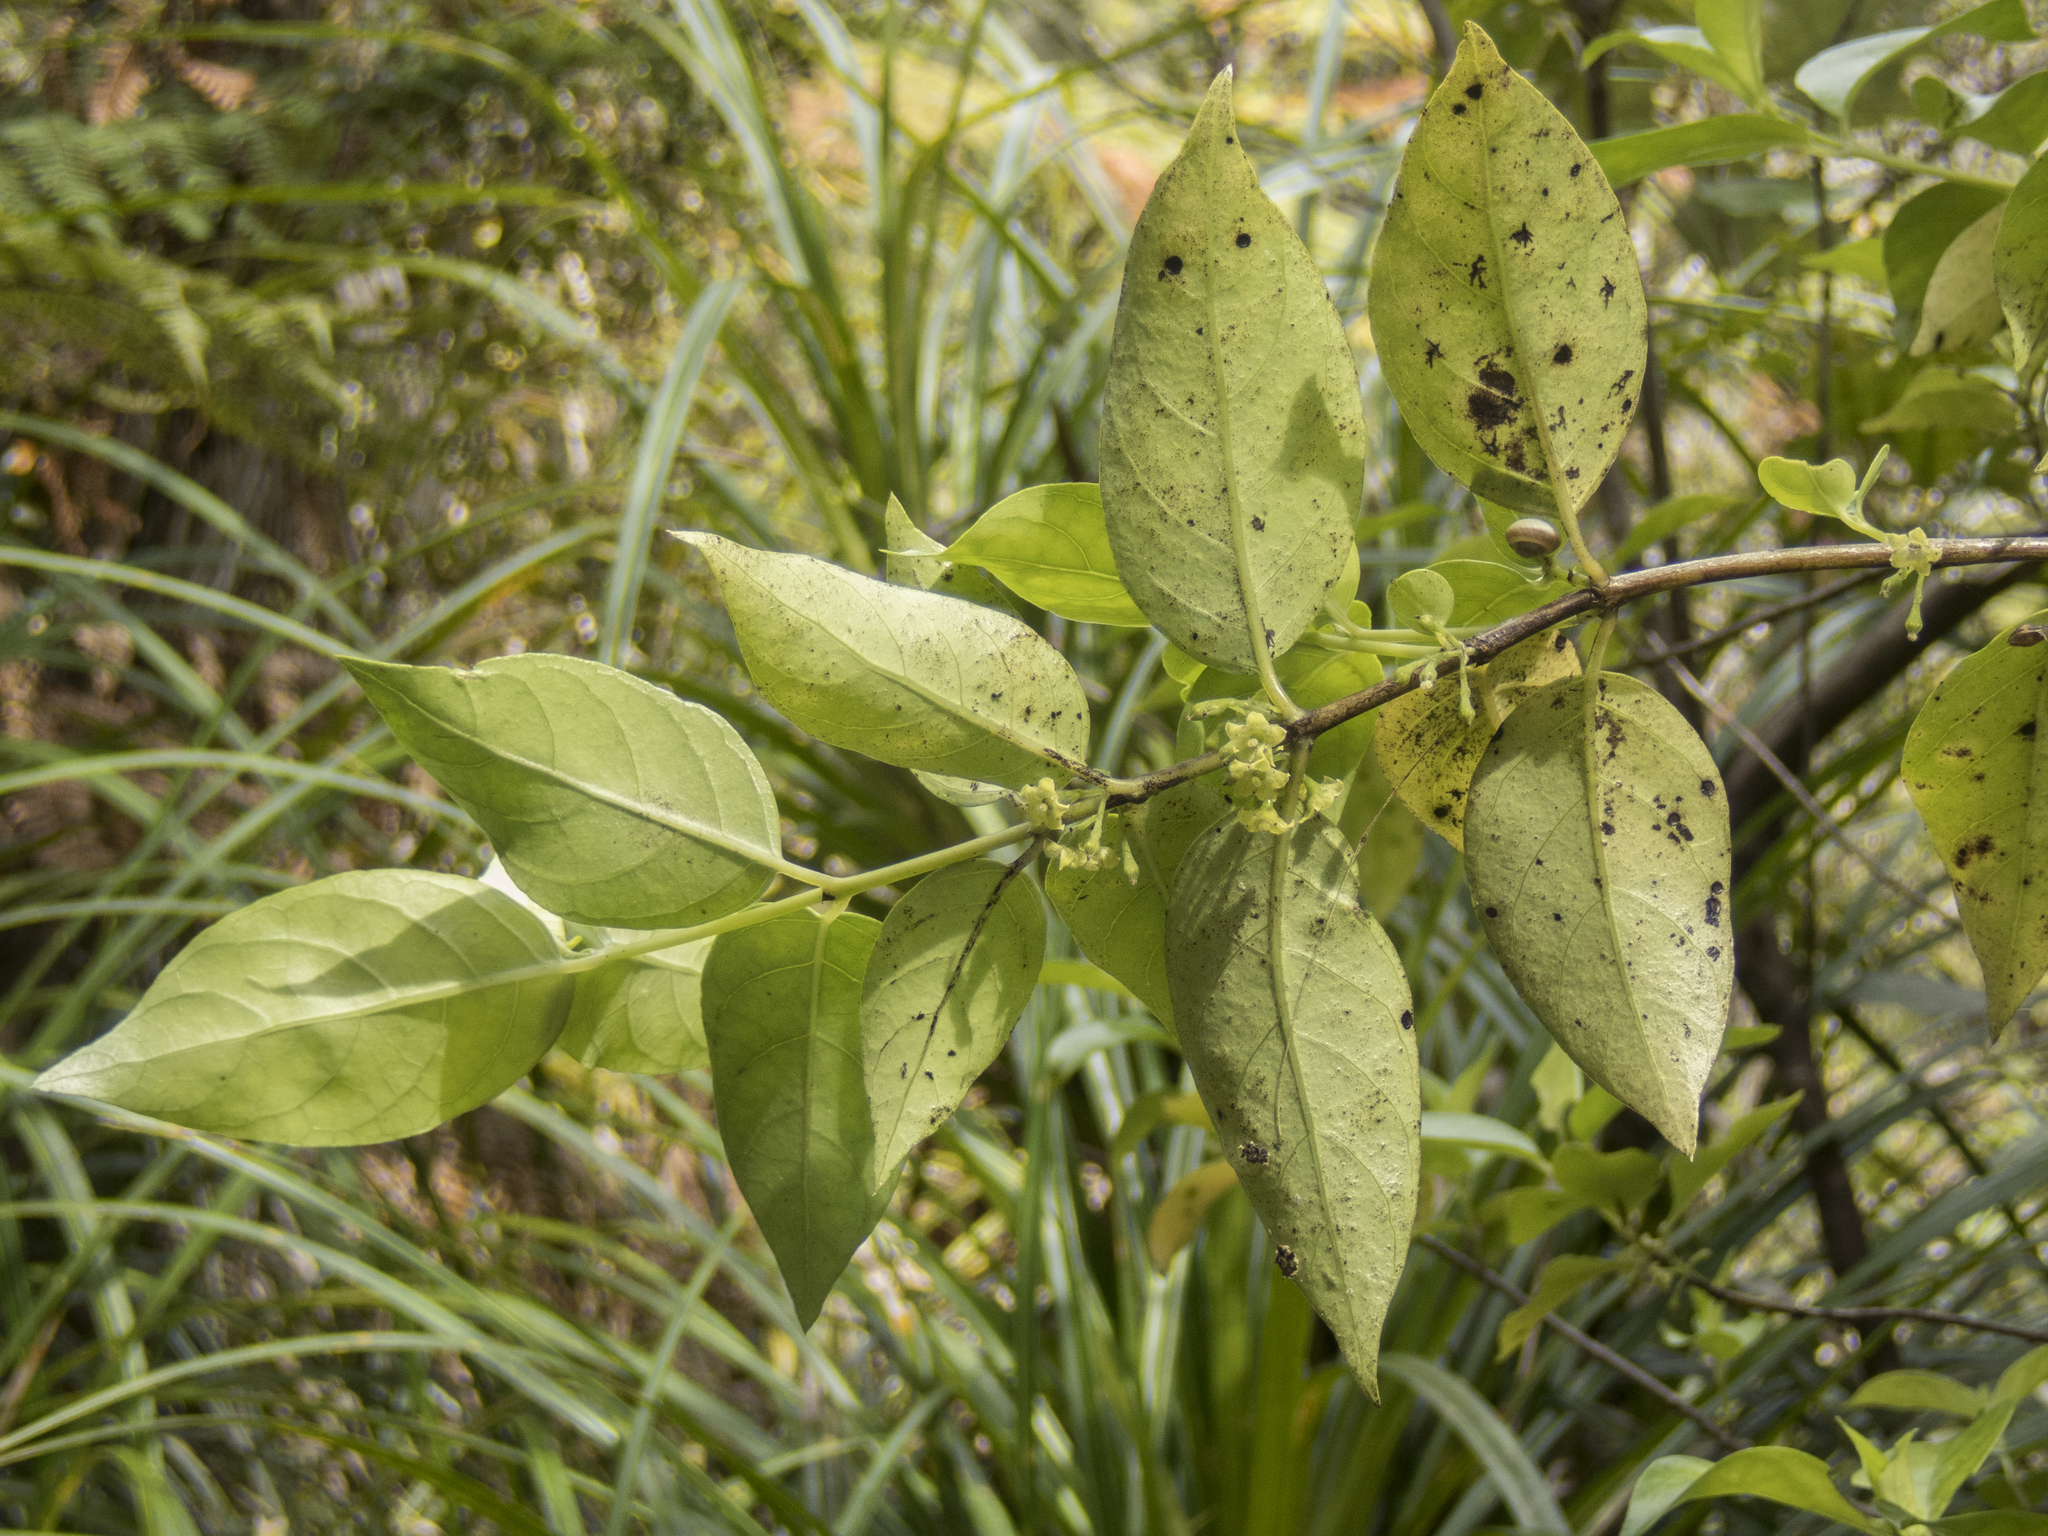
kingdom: Plantae
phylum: Tracheophyta
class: Magnoliopsida
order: Gentianales
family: Loganiaceae
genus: Geniostoma
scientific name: Geniostoma ligustrifolium
